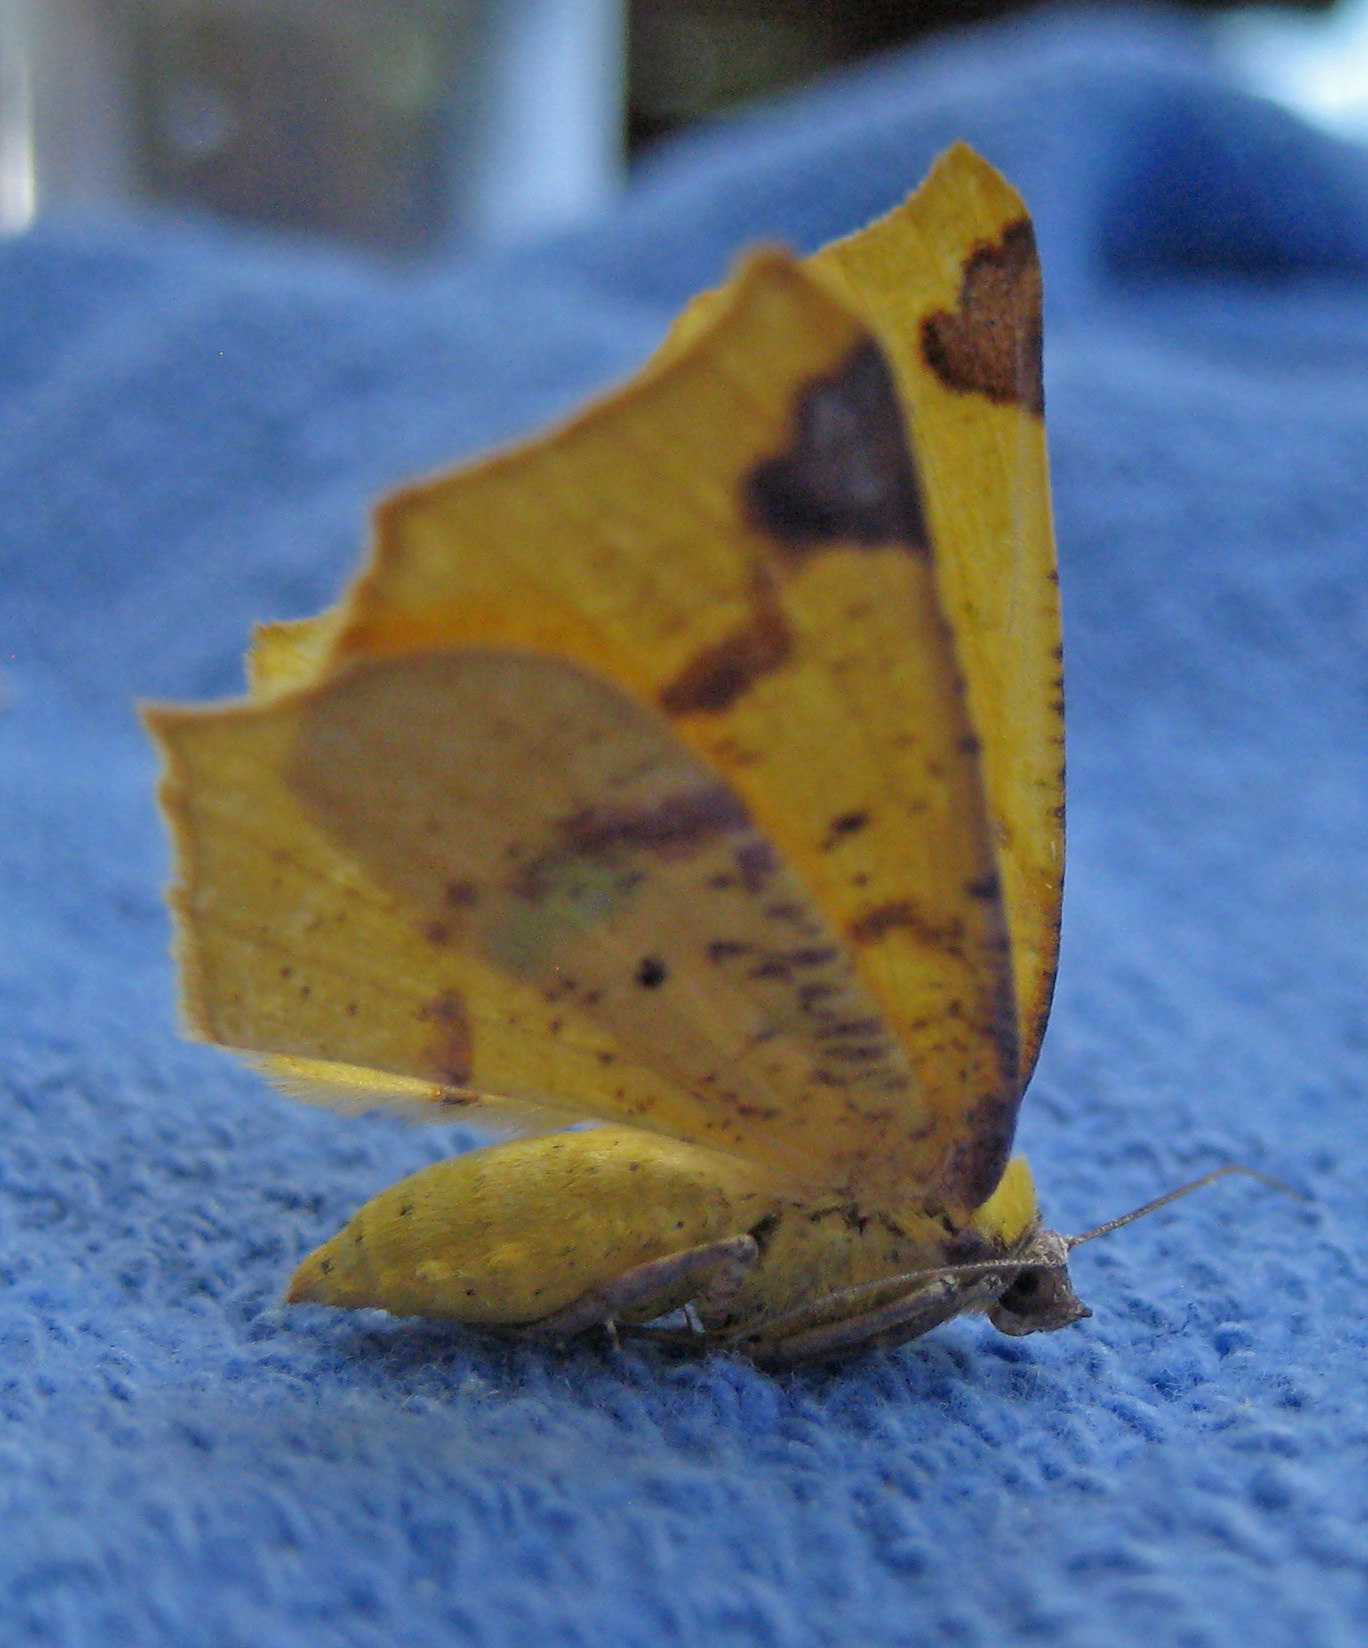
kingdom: Animalia
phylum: Arthropoda
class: Insecta
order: Lepidoptera
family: Geometridae
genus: Antepione
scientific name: Antepione thisoaria
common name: Variable antipione
